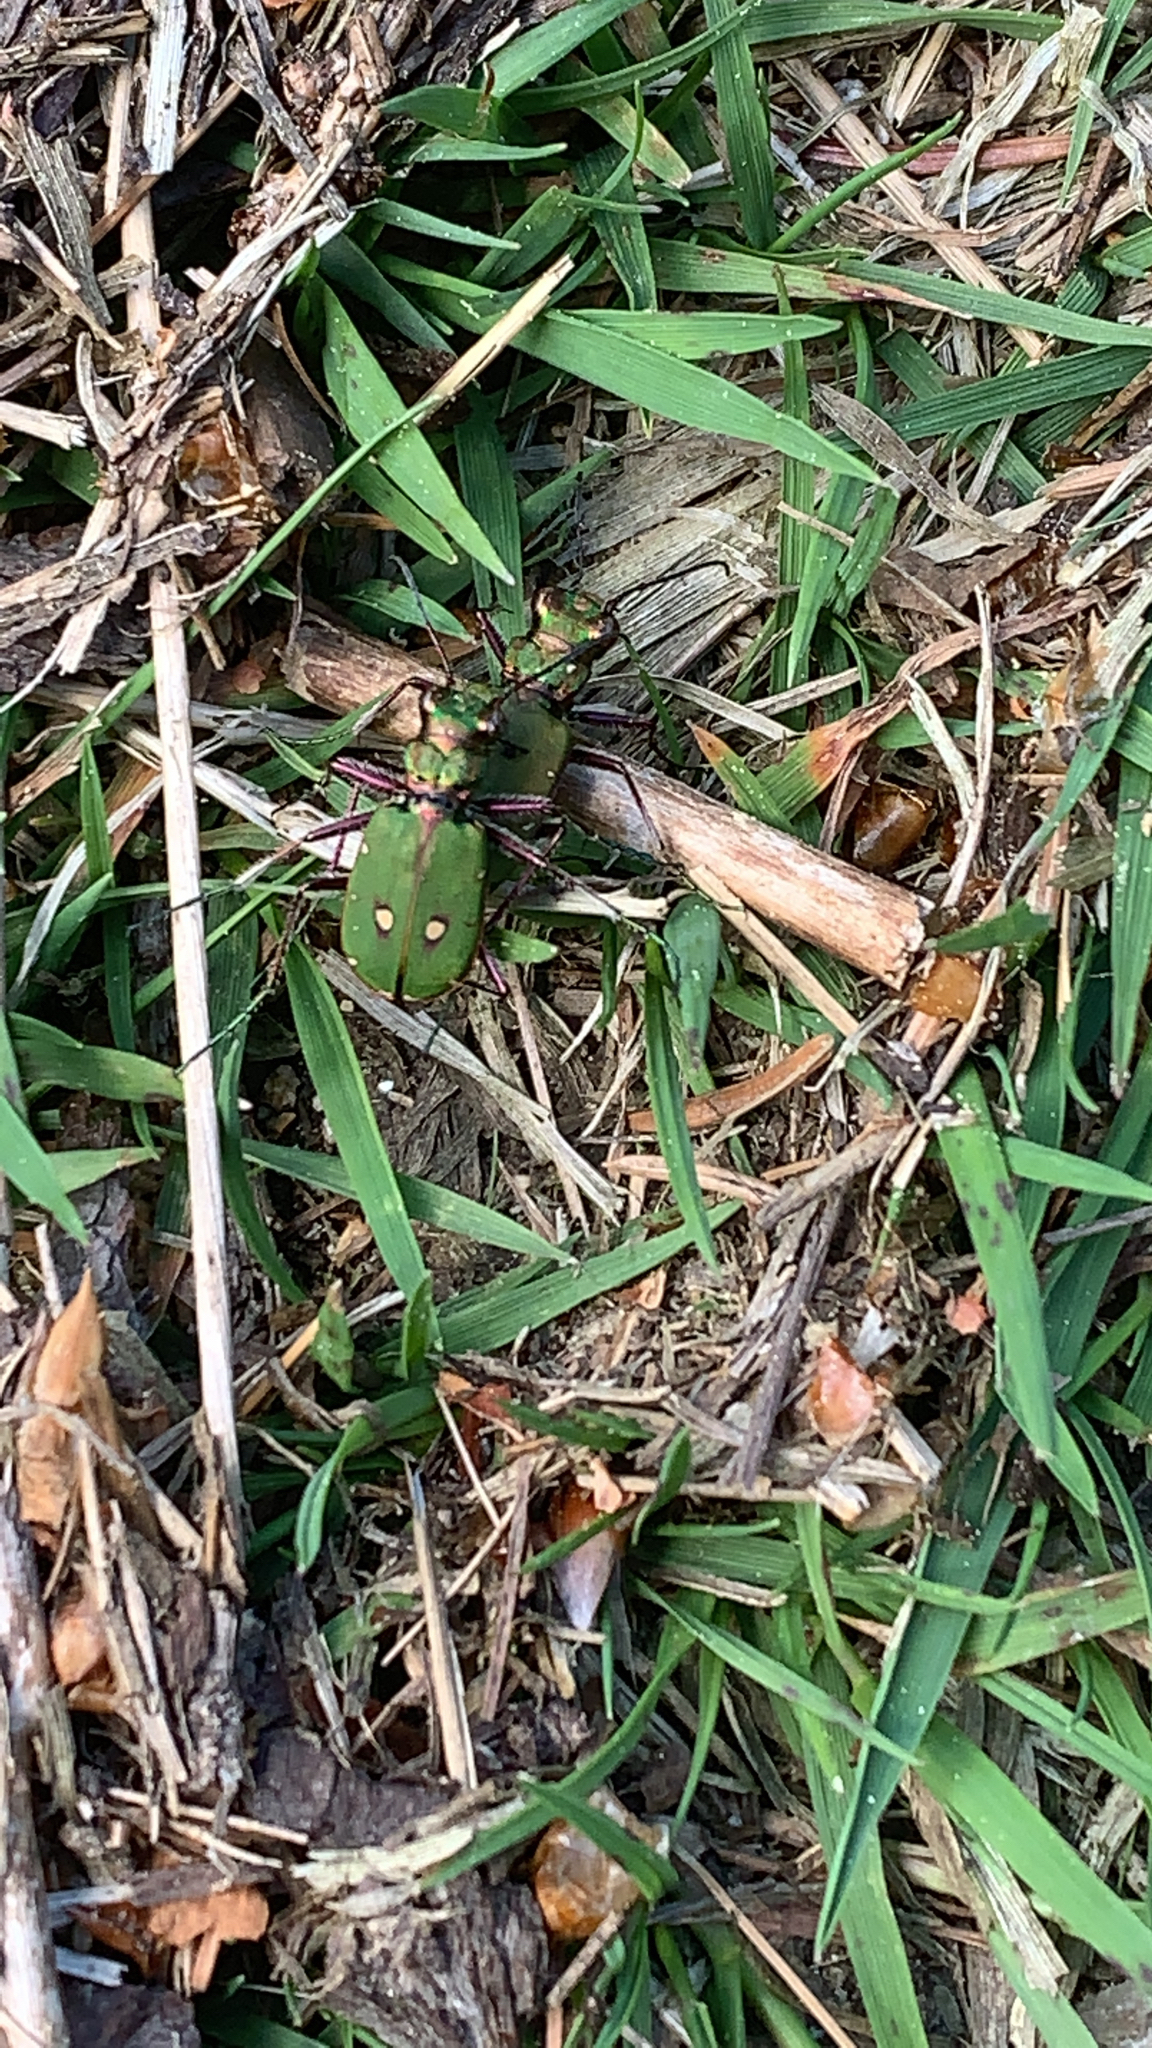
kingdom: Animalia
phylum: Arthropoda
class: Insecta
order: Coleoptera
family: Carabidae
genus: Cicindela
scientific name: Cicindela campestris
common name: Common tiger beetle
